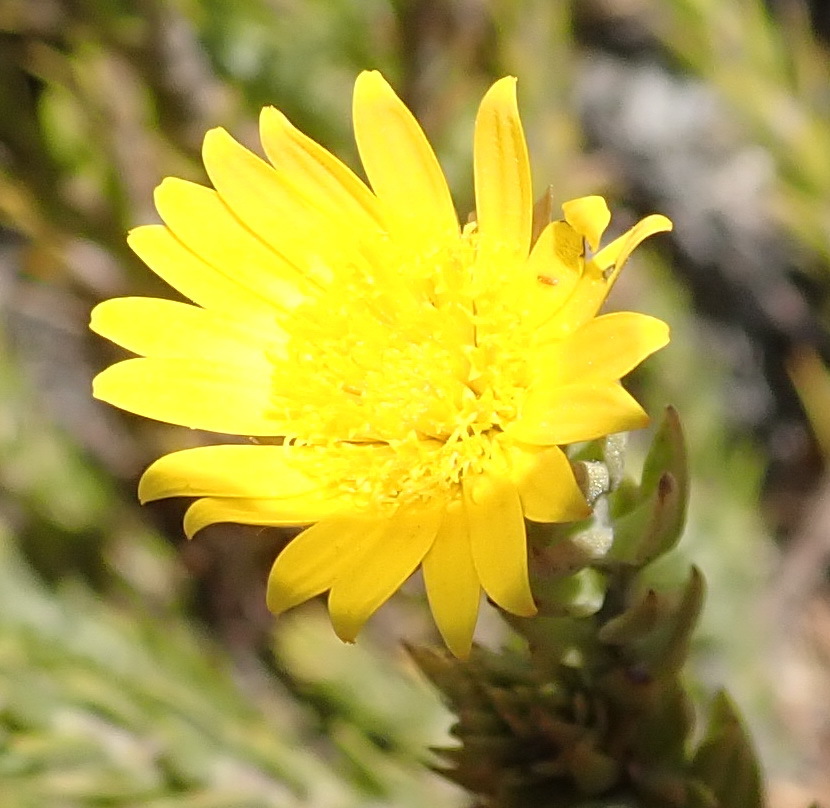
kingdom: Plantae
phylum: Tracheophyta
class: Magnoliopsida
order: Asterales
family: Asteraceae
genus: Oedera
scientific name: Oedera calycina
